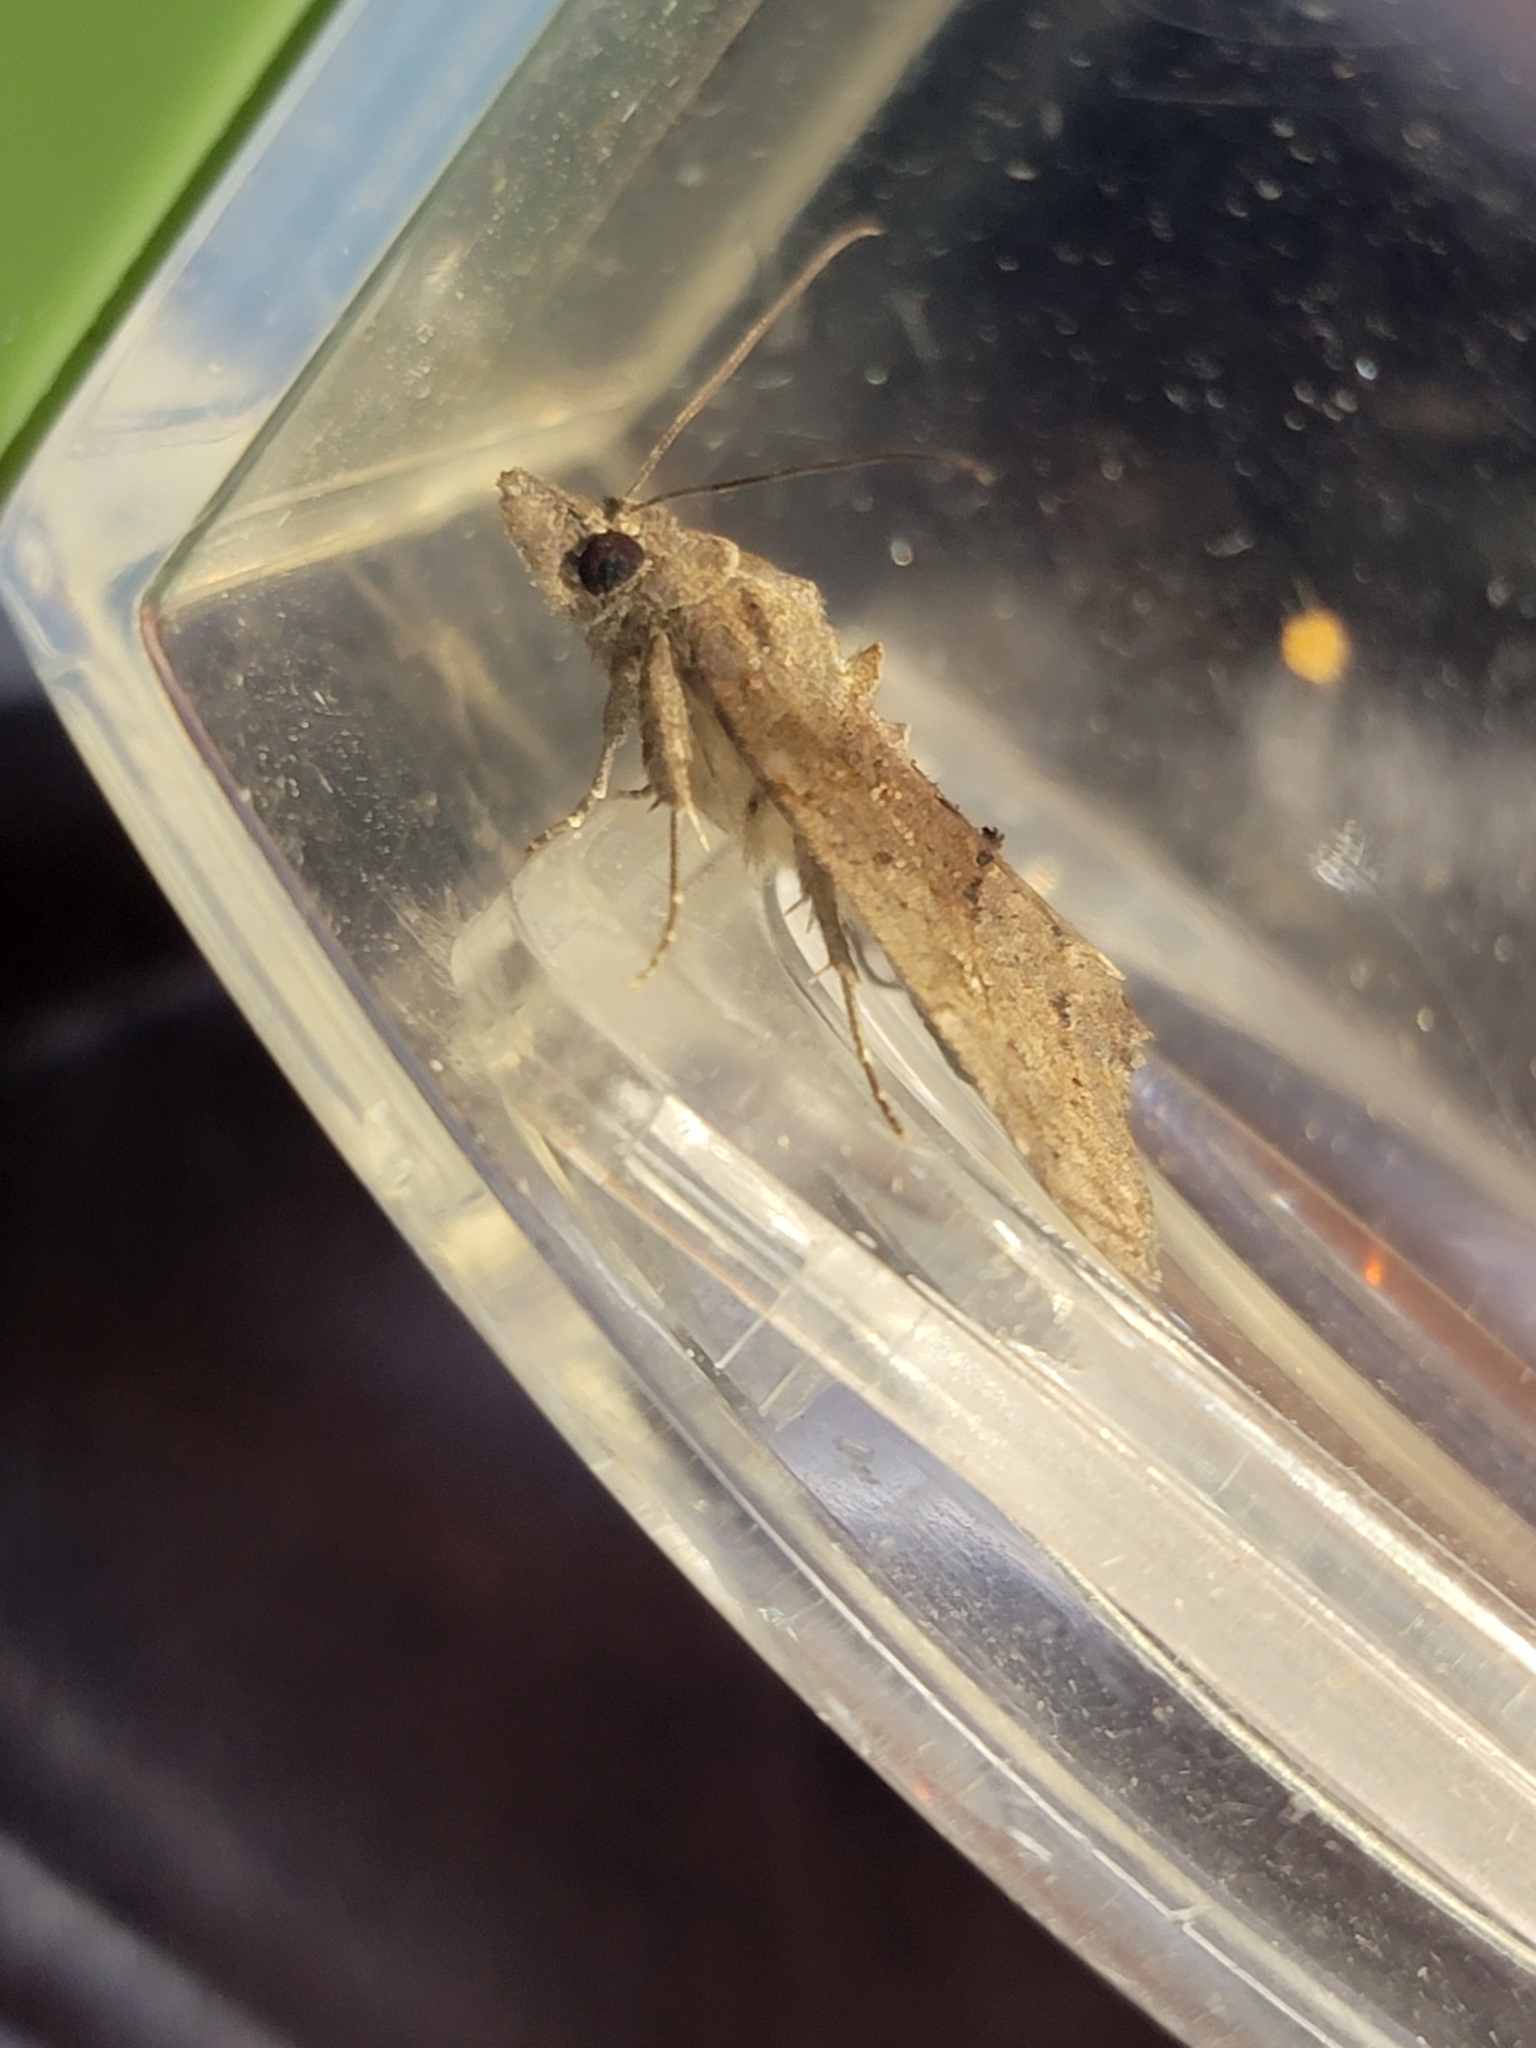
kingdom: Animalia
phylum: Arthropoda
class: Insecta
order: Lepidoptera
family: Erebidae
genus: Hypena
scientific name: Hypena scabra
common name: Green cloverworm
